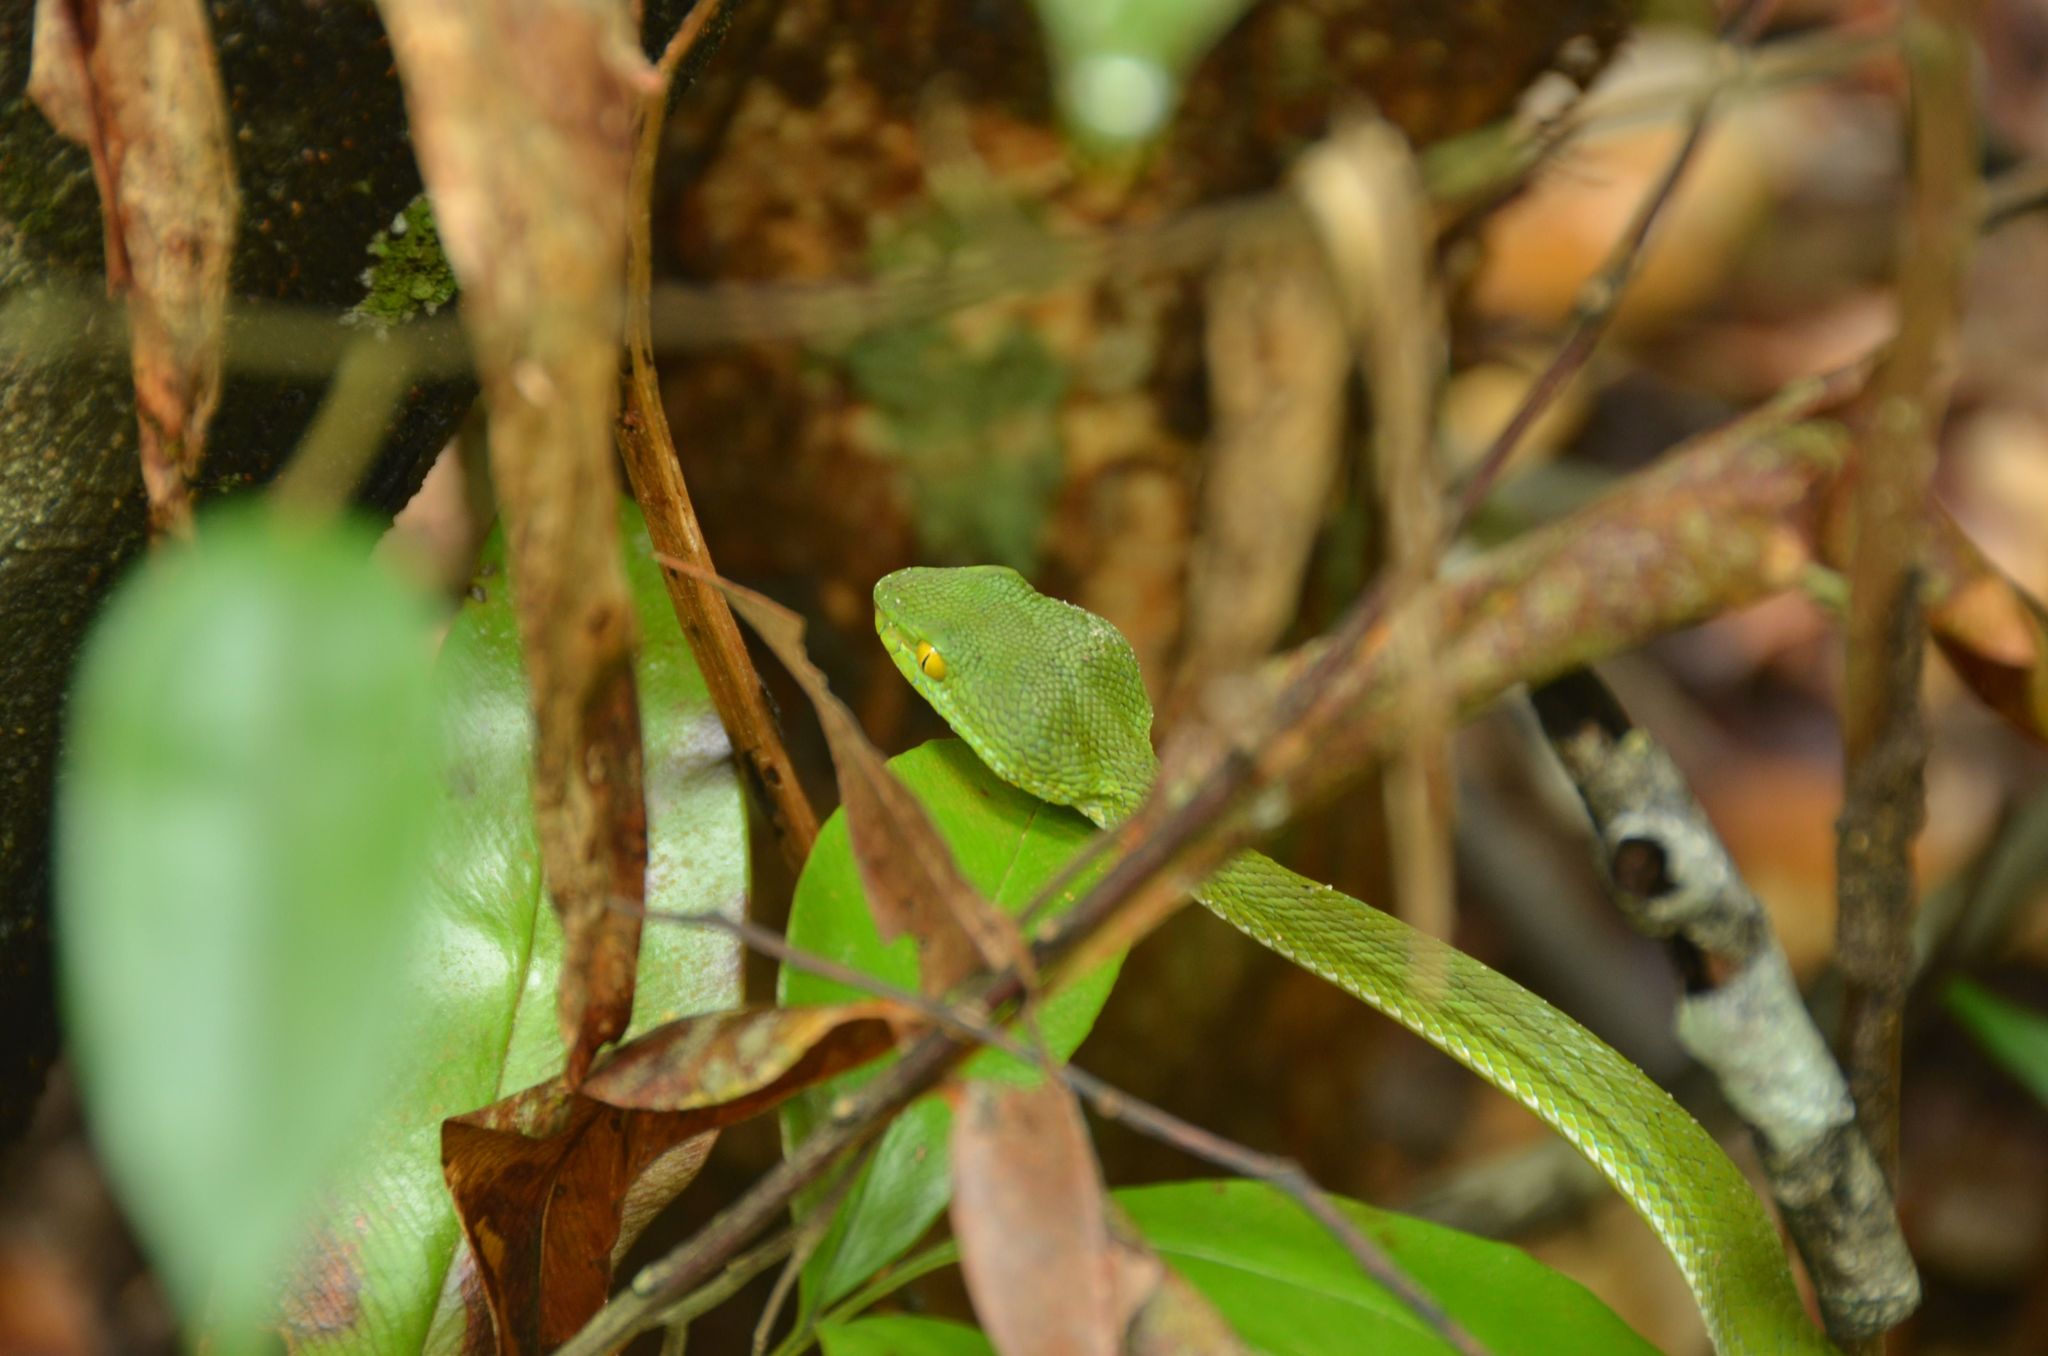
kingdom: Animalia
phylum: Chordata
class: Squamata
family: Viperidae
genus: Trimeresurus
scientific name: Trimeresurus cardamomensis
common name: Cardamom mountains green pitviper
